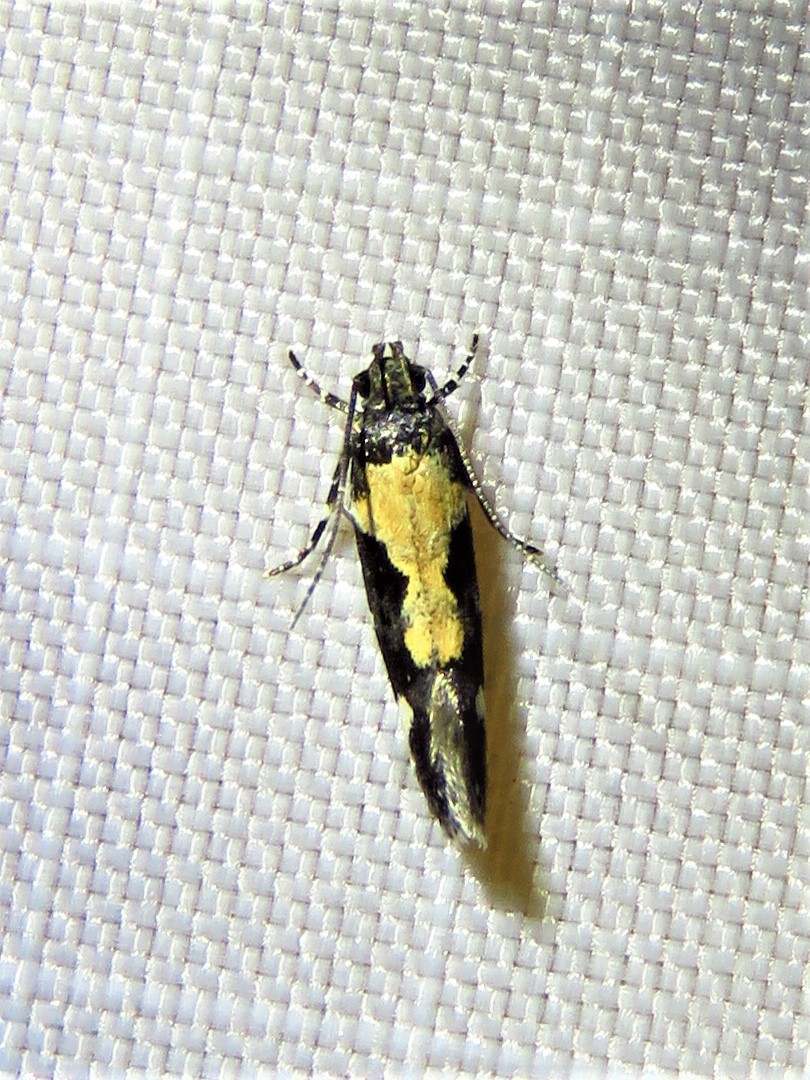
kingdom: Animalia
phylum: Arthropoda
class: Insecta
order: Lepidoptera
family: Gelechiidae
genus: Stegasta
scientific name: Stegasta bosqueella
